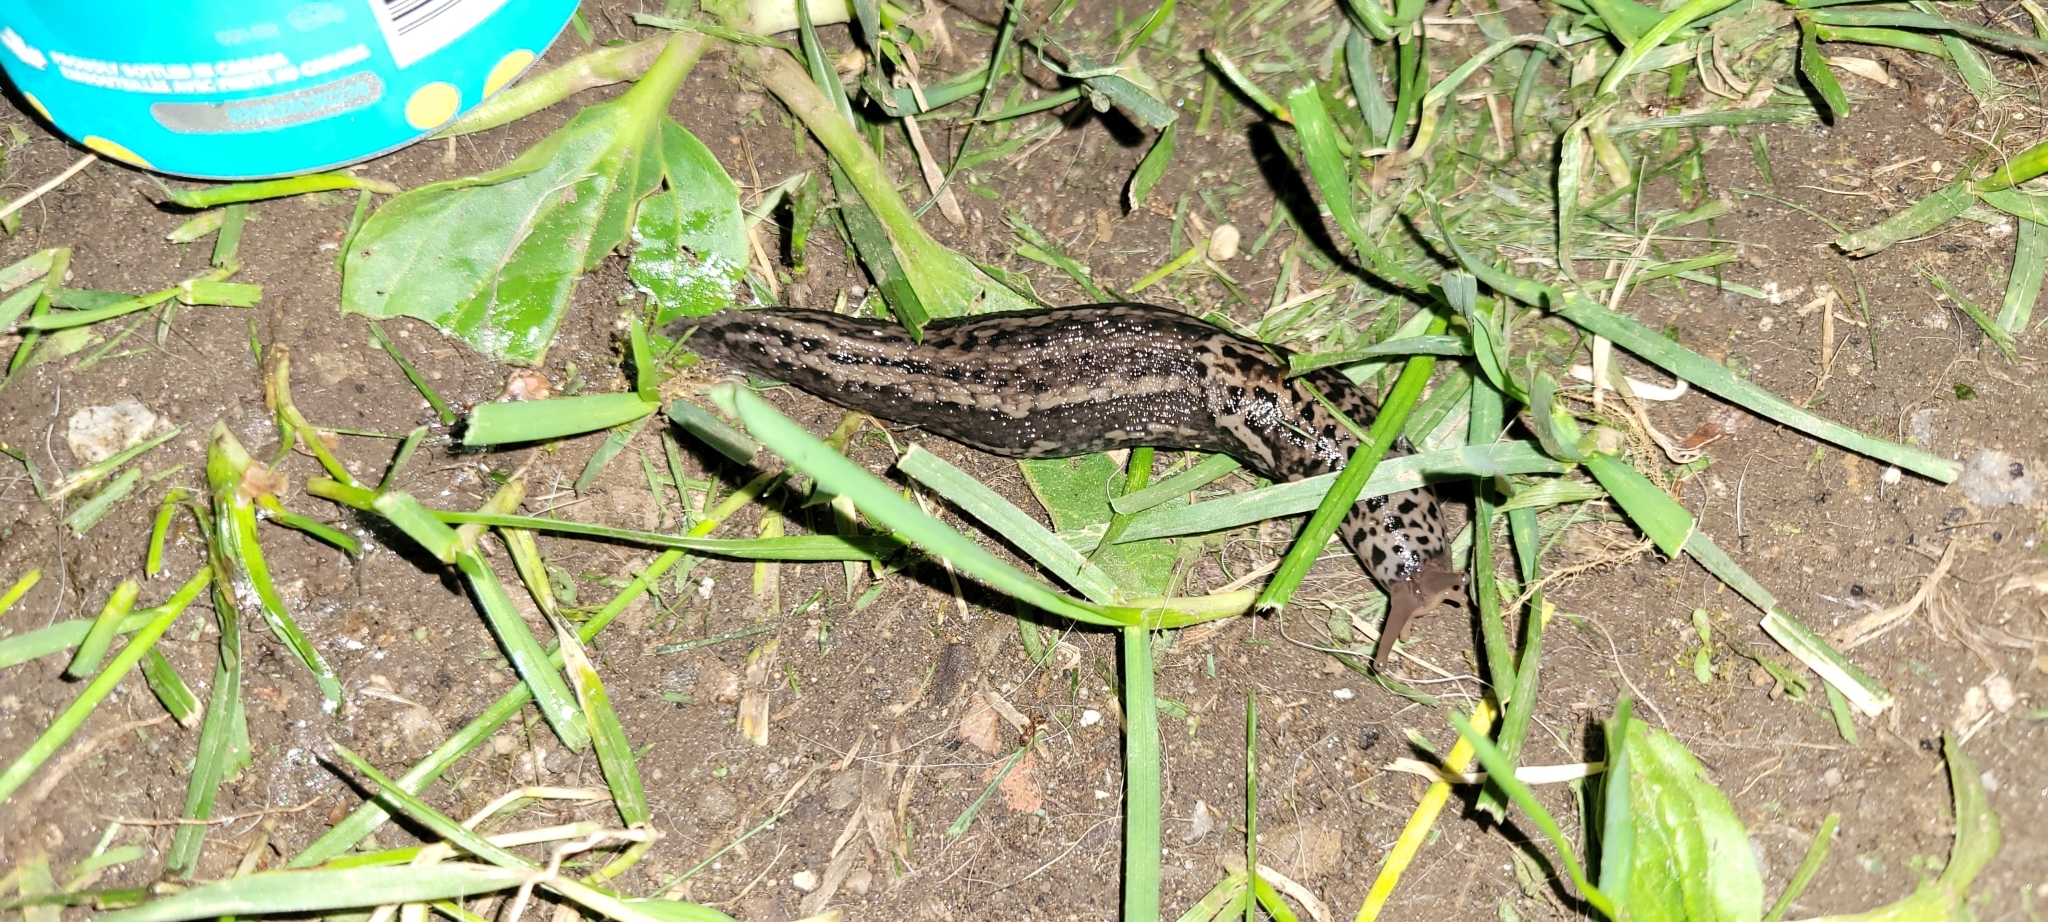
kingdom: Animalia
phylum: Mollusca
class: Gastropoda
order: Stylommatophora
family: Limacidae
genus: Limax
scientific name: Limax maximus
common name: Great grey slug
